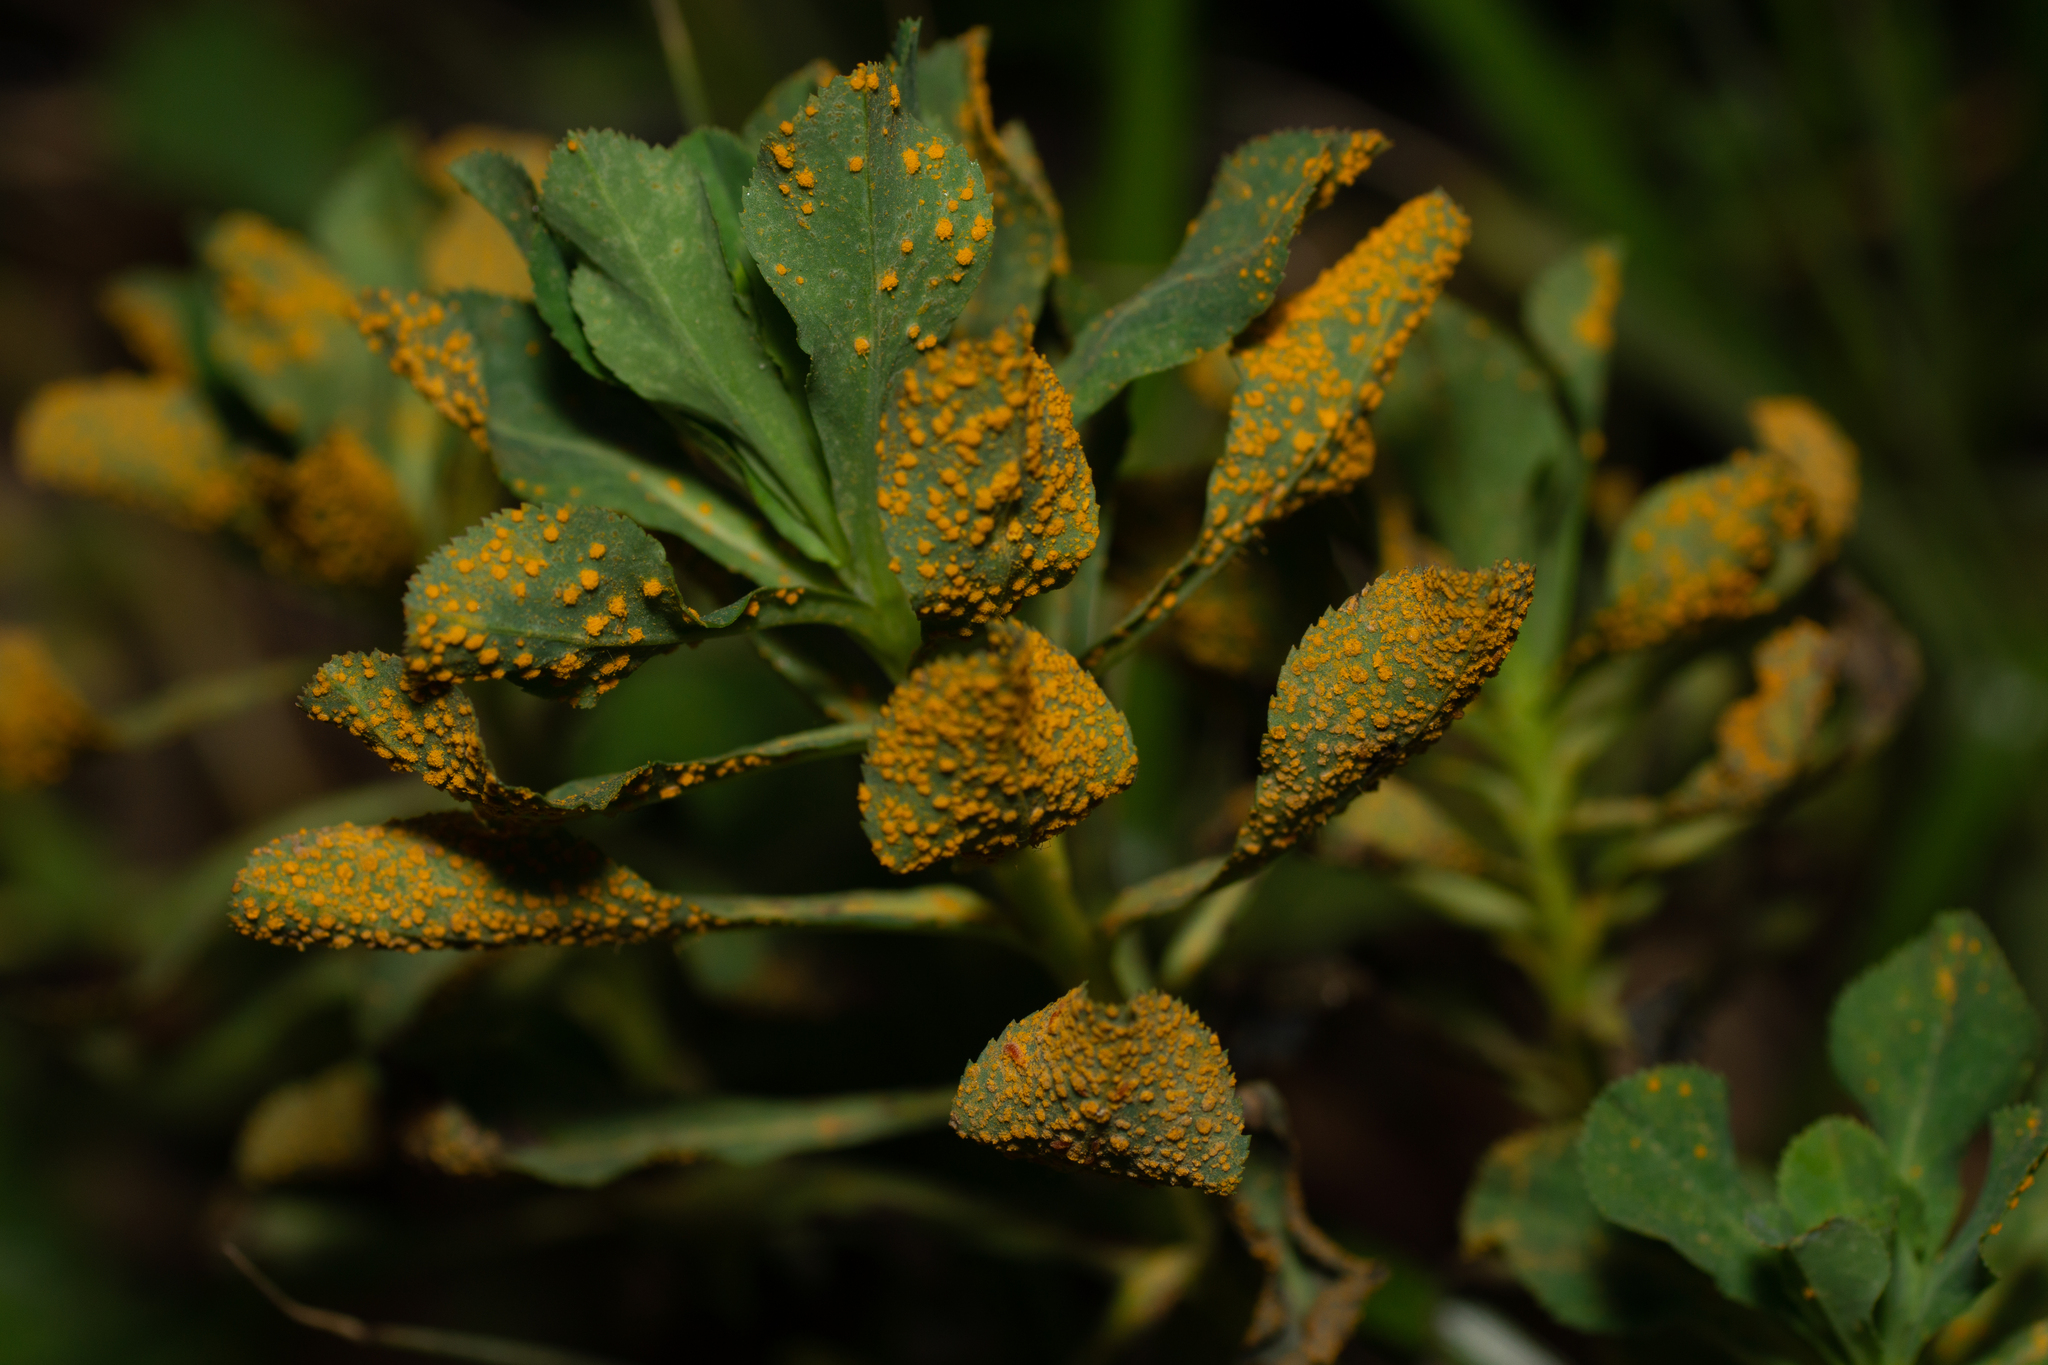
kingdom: Fungi
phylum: Basidiomycota
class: Pucciniomycetes
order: Pucciniales
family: Melampsoraceae
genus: Melampsora
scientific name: Melampsora euphorbiae
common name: Spurge rust
